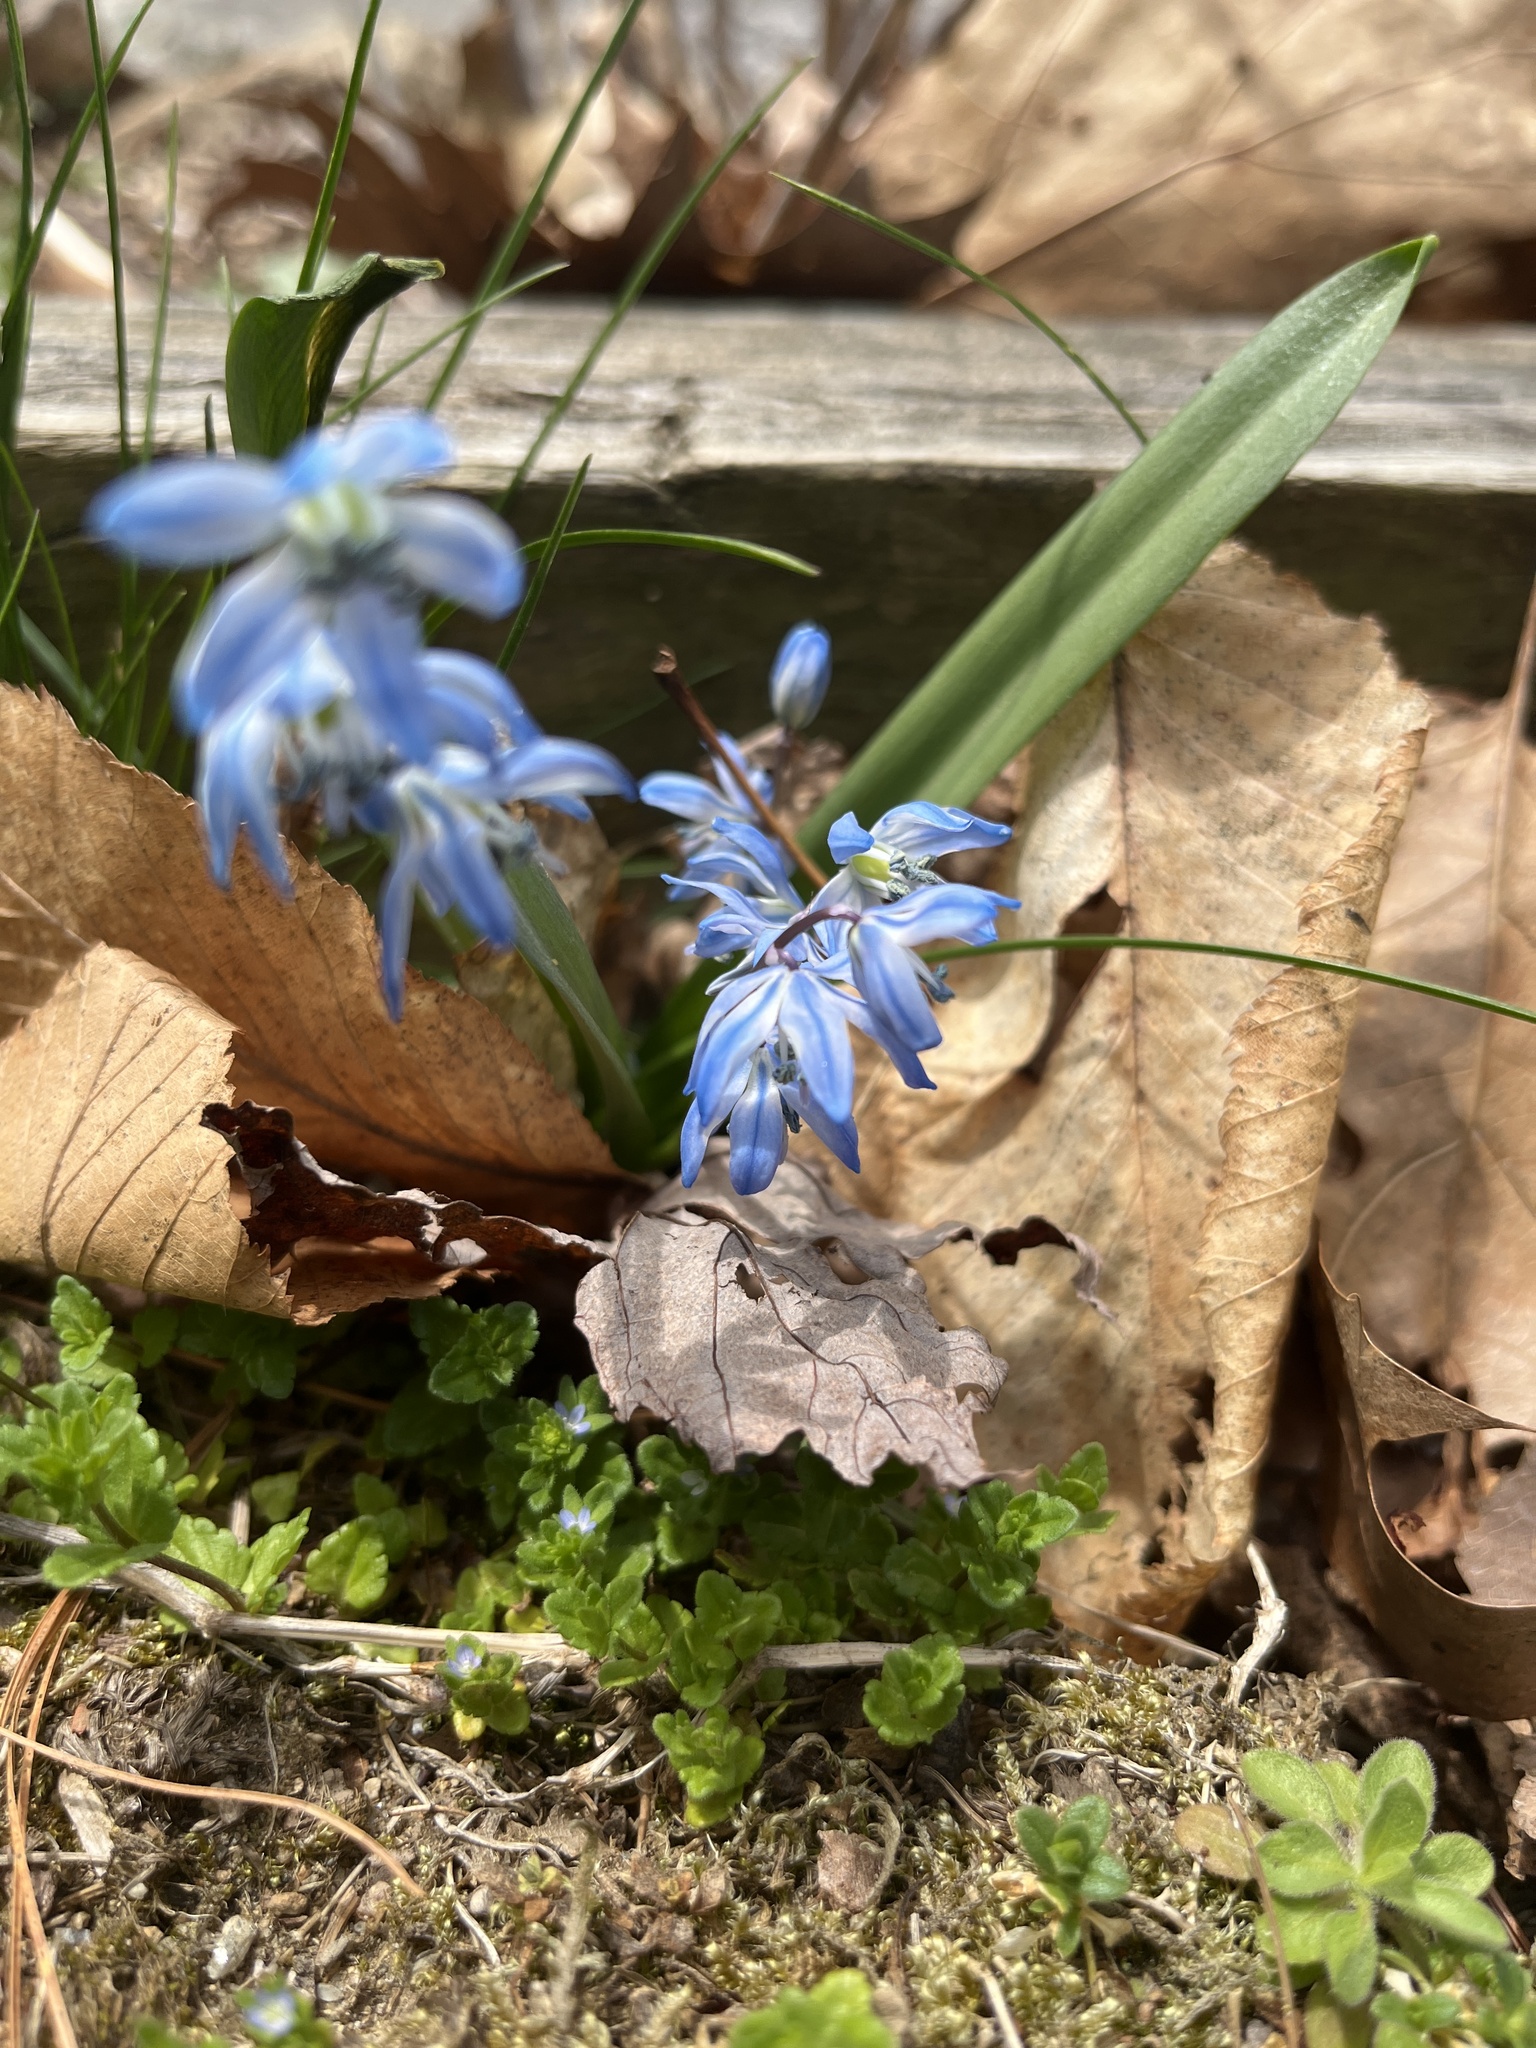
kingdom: Plantae
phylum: Tracheophyta
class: Liliopsida
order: Asparagales
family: Asparagaceae
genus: Scilla
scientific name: Scilla siberica
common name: Siberian squill
